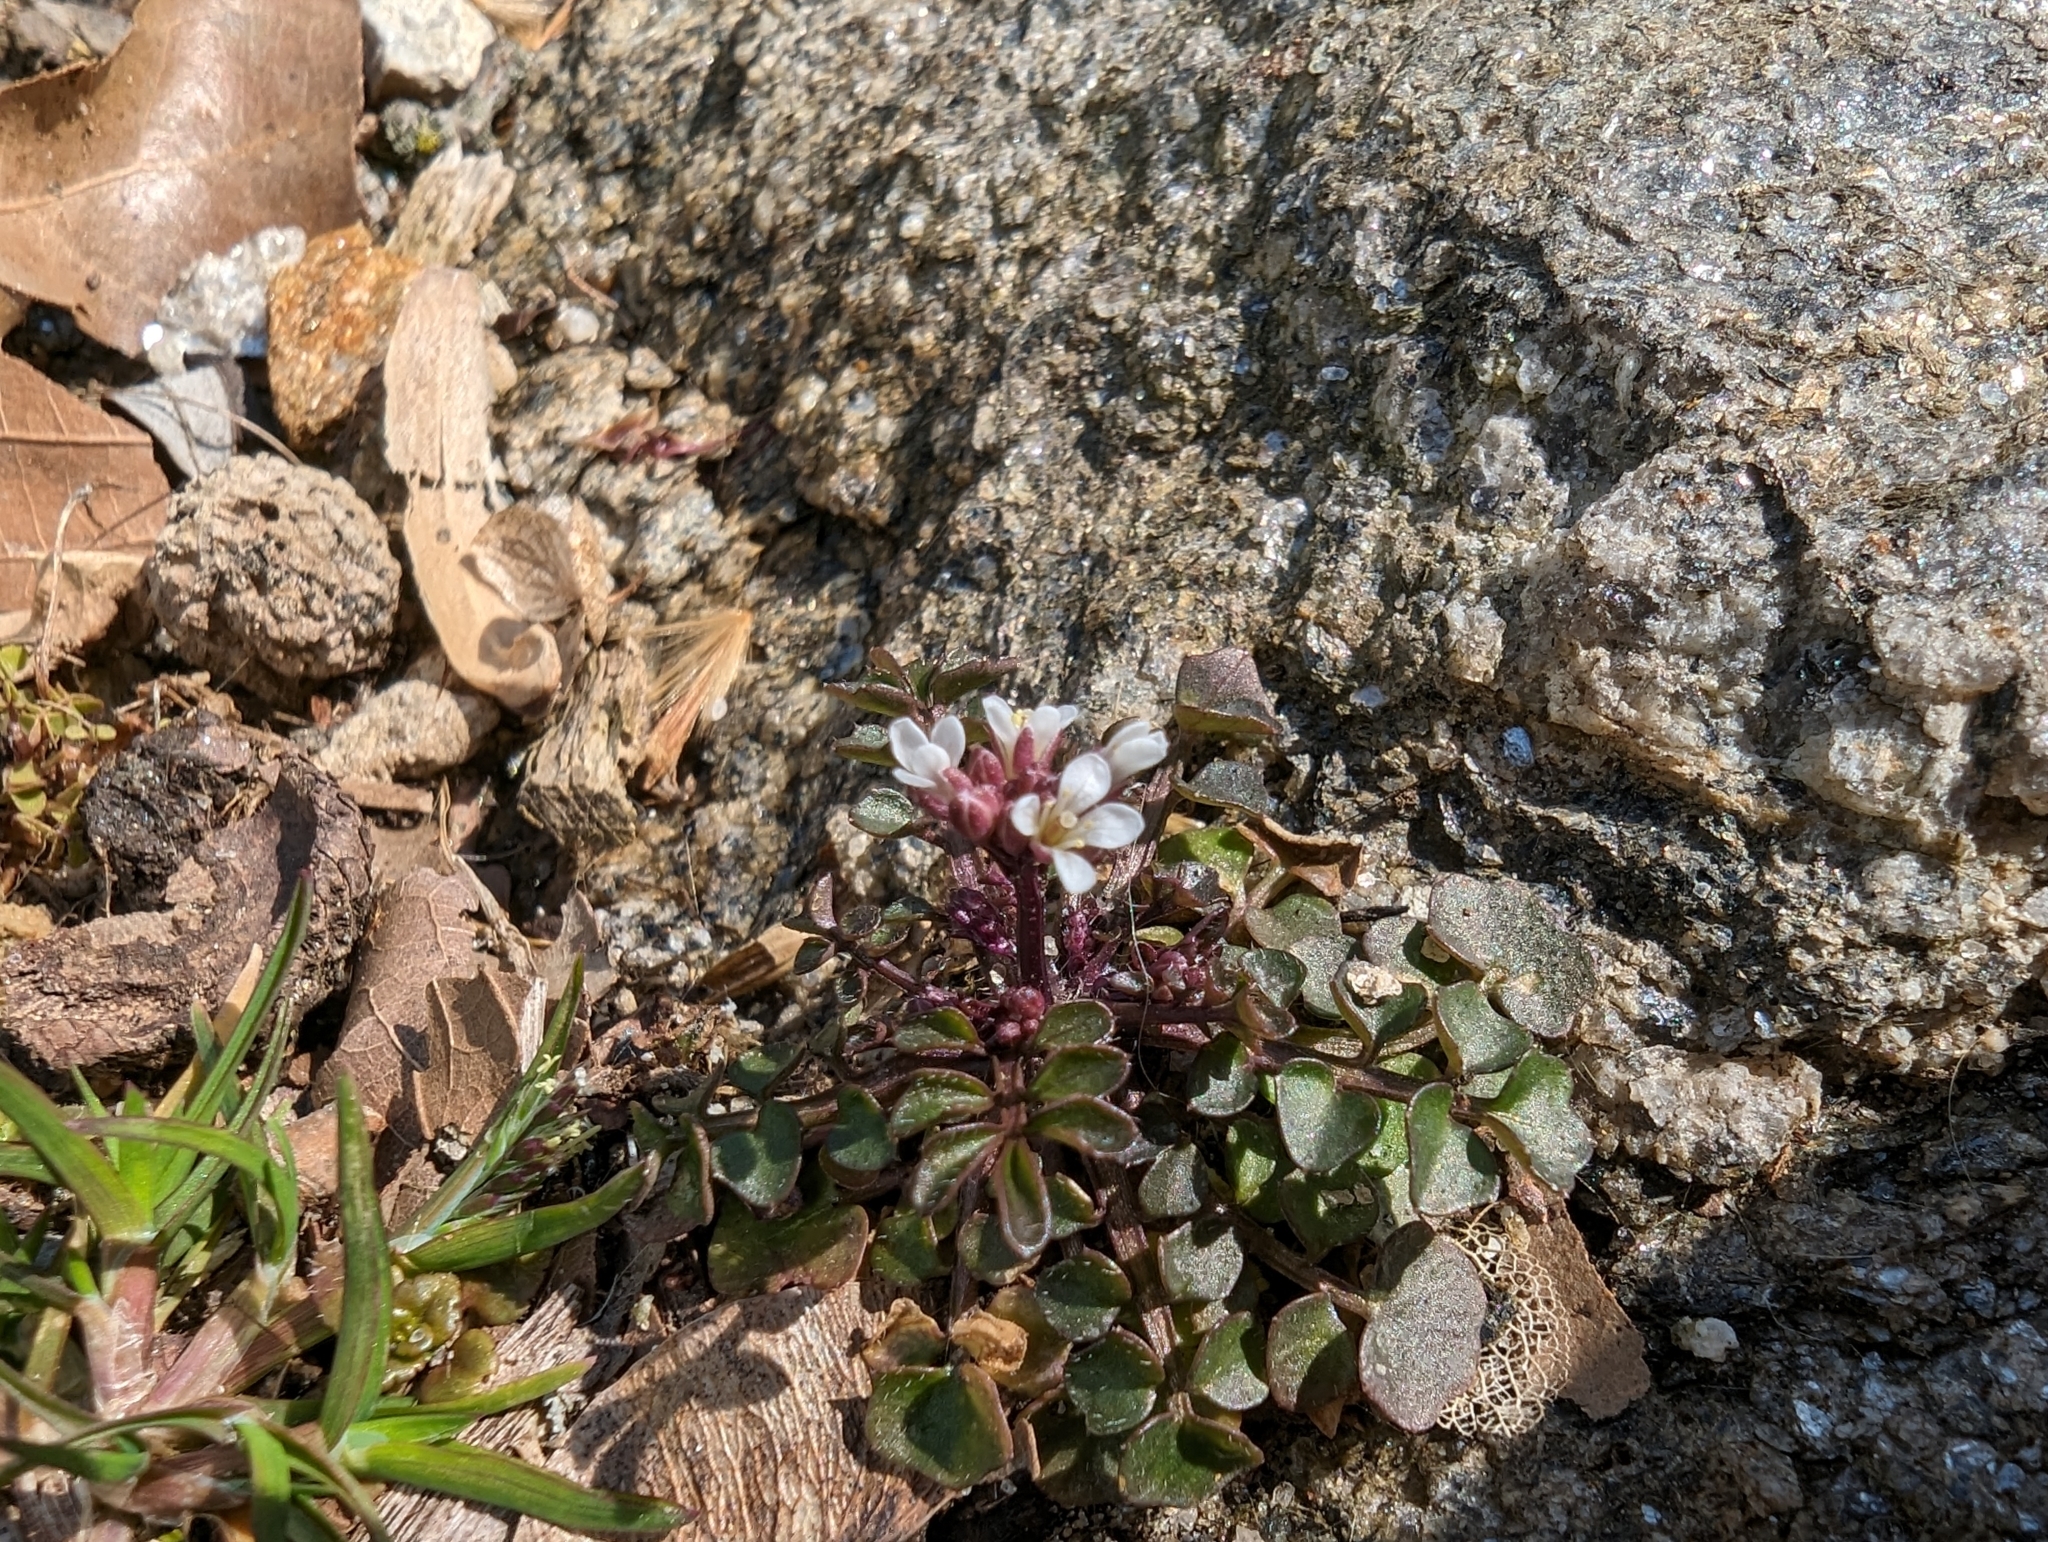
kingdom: Plantae
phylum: Tracheophyta
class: Magnoliopsida
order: Brassicales
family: Brassicaceae
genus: Cardamine
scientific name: Cardamine hirsuta
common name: Hairy bittercress
